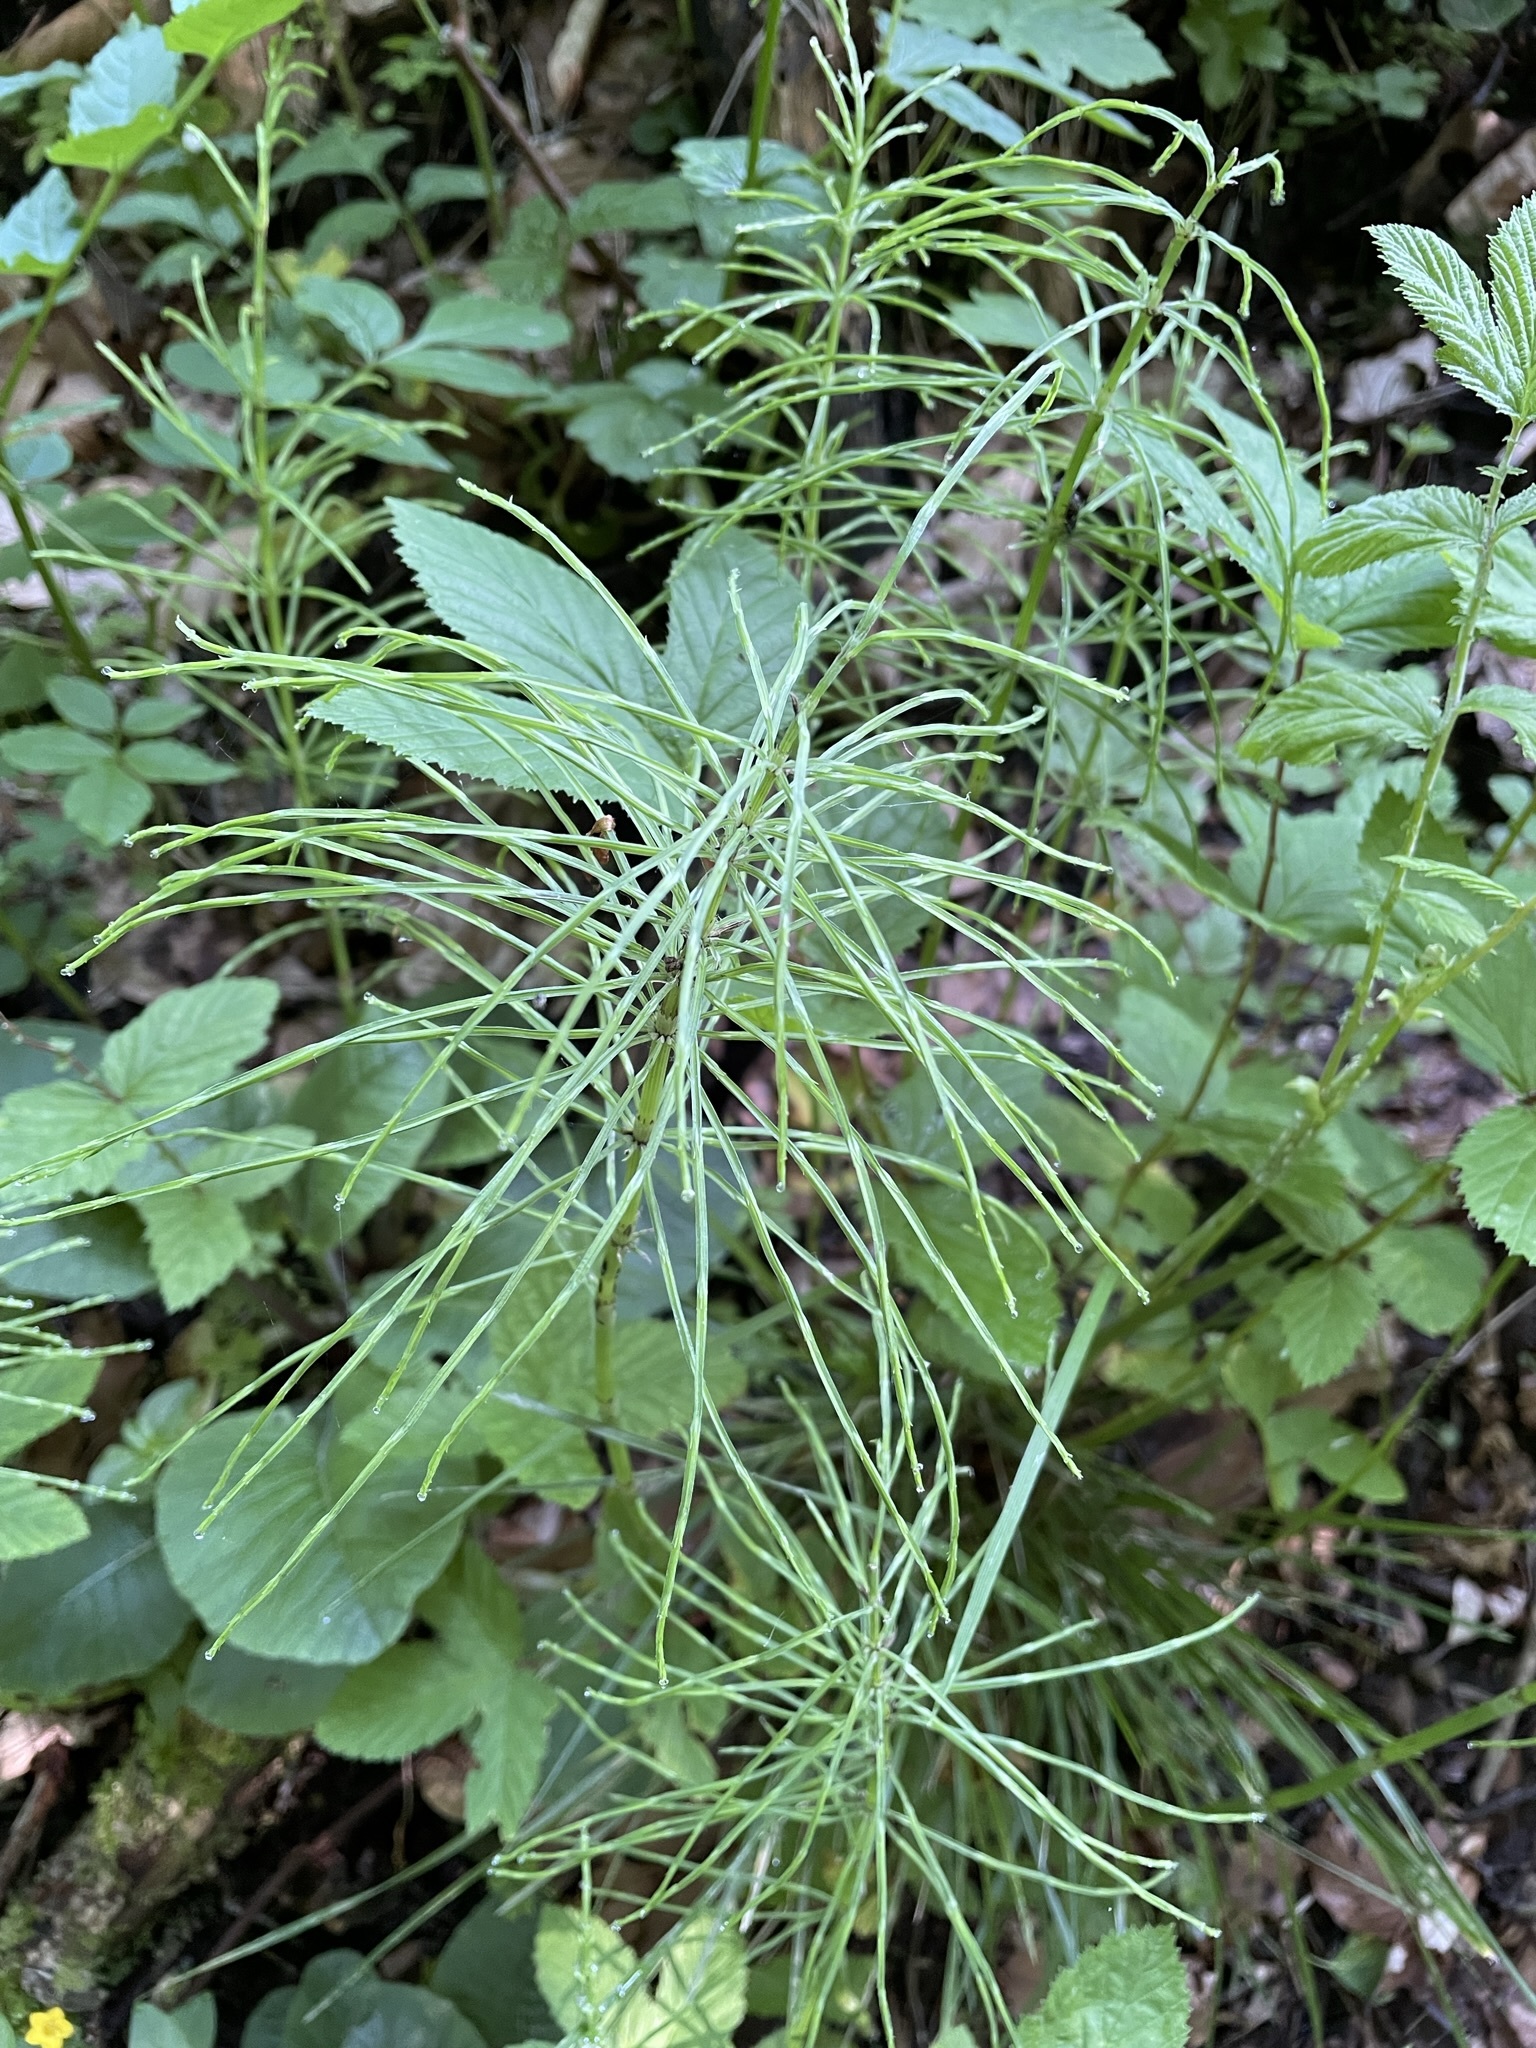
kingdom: Plantae
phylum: Tracheophyta
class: Polypodiopsida
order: Equisetales
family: Equisetaceae
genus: Equisetum
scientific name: Equisetum arvense
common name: Field horsetail
